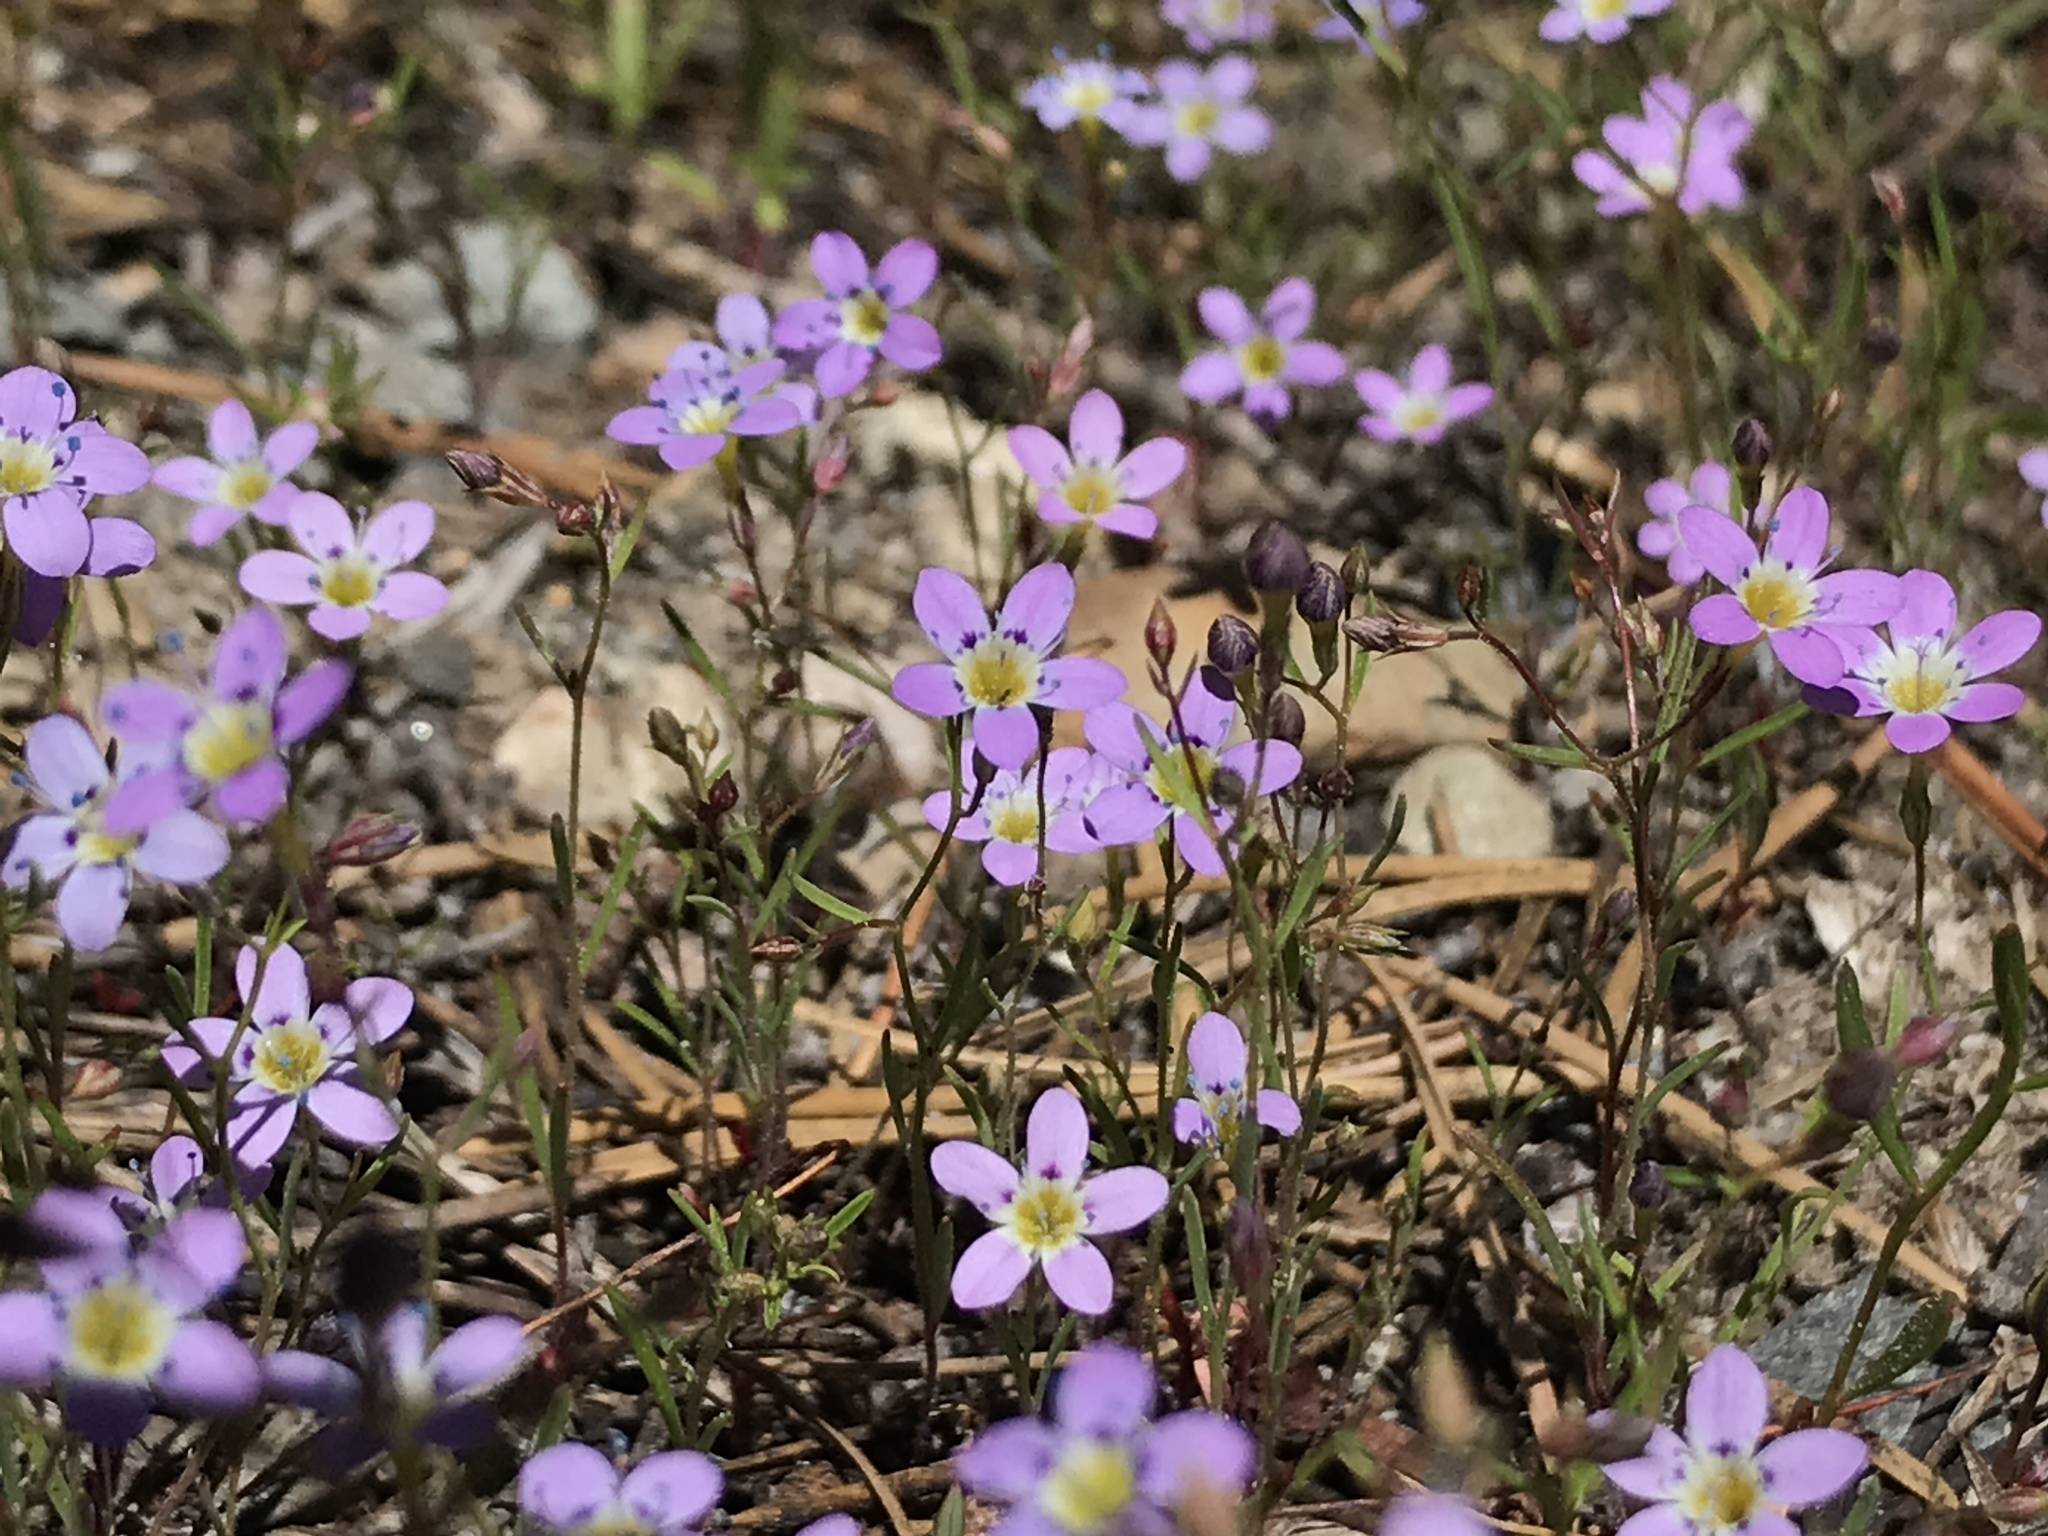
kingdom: Plantae
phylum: Tracheophyta
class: Magnoliopsida
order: Ericales
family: Polemoniaceae
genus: Navarretia
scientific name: Navarretia leptalea
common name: Bridges' pincushionplant
